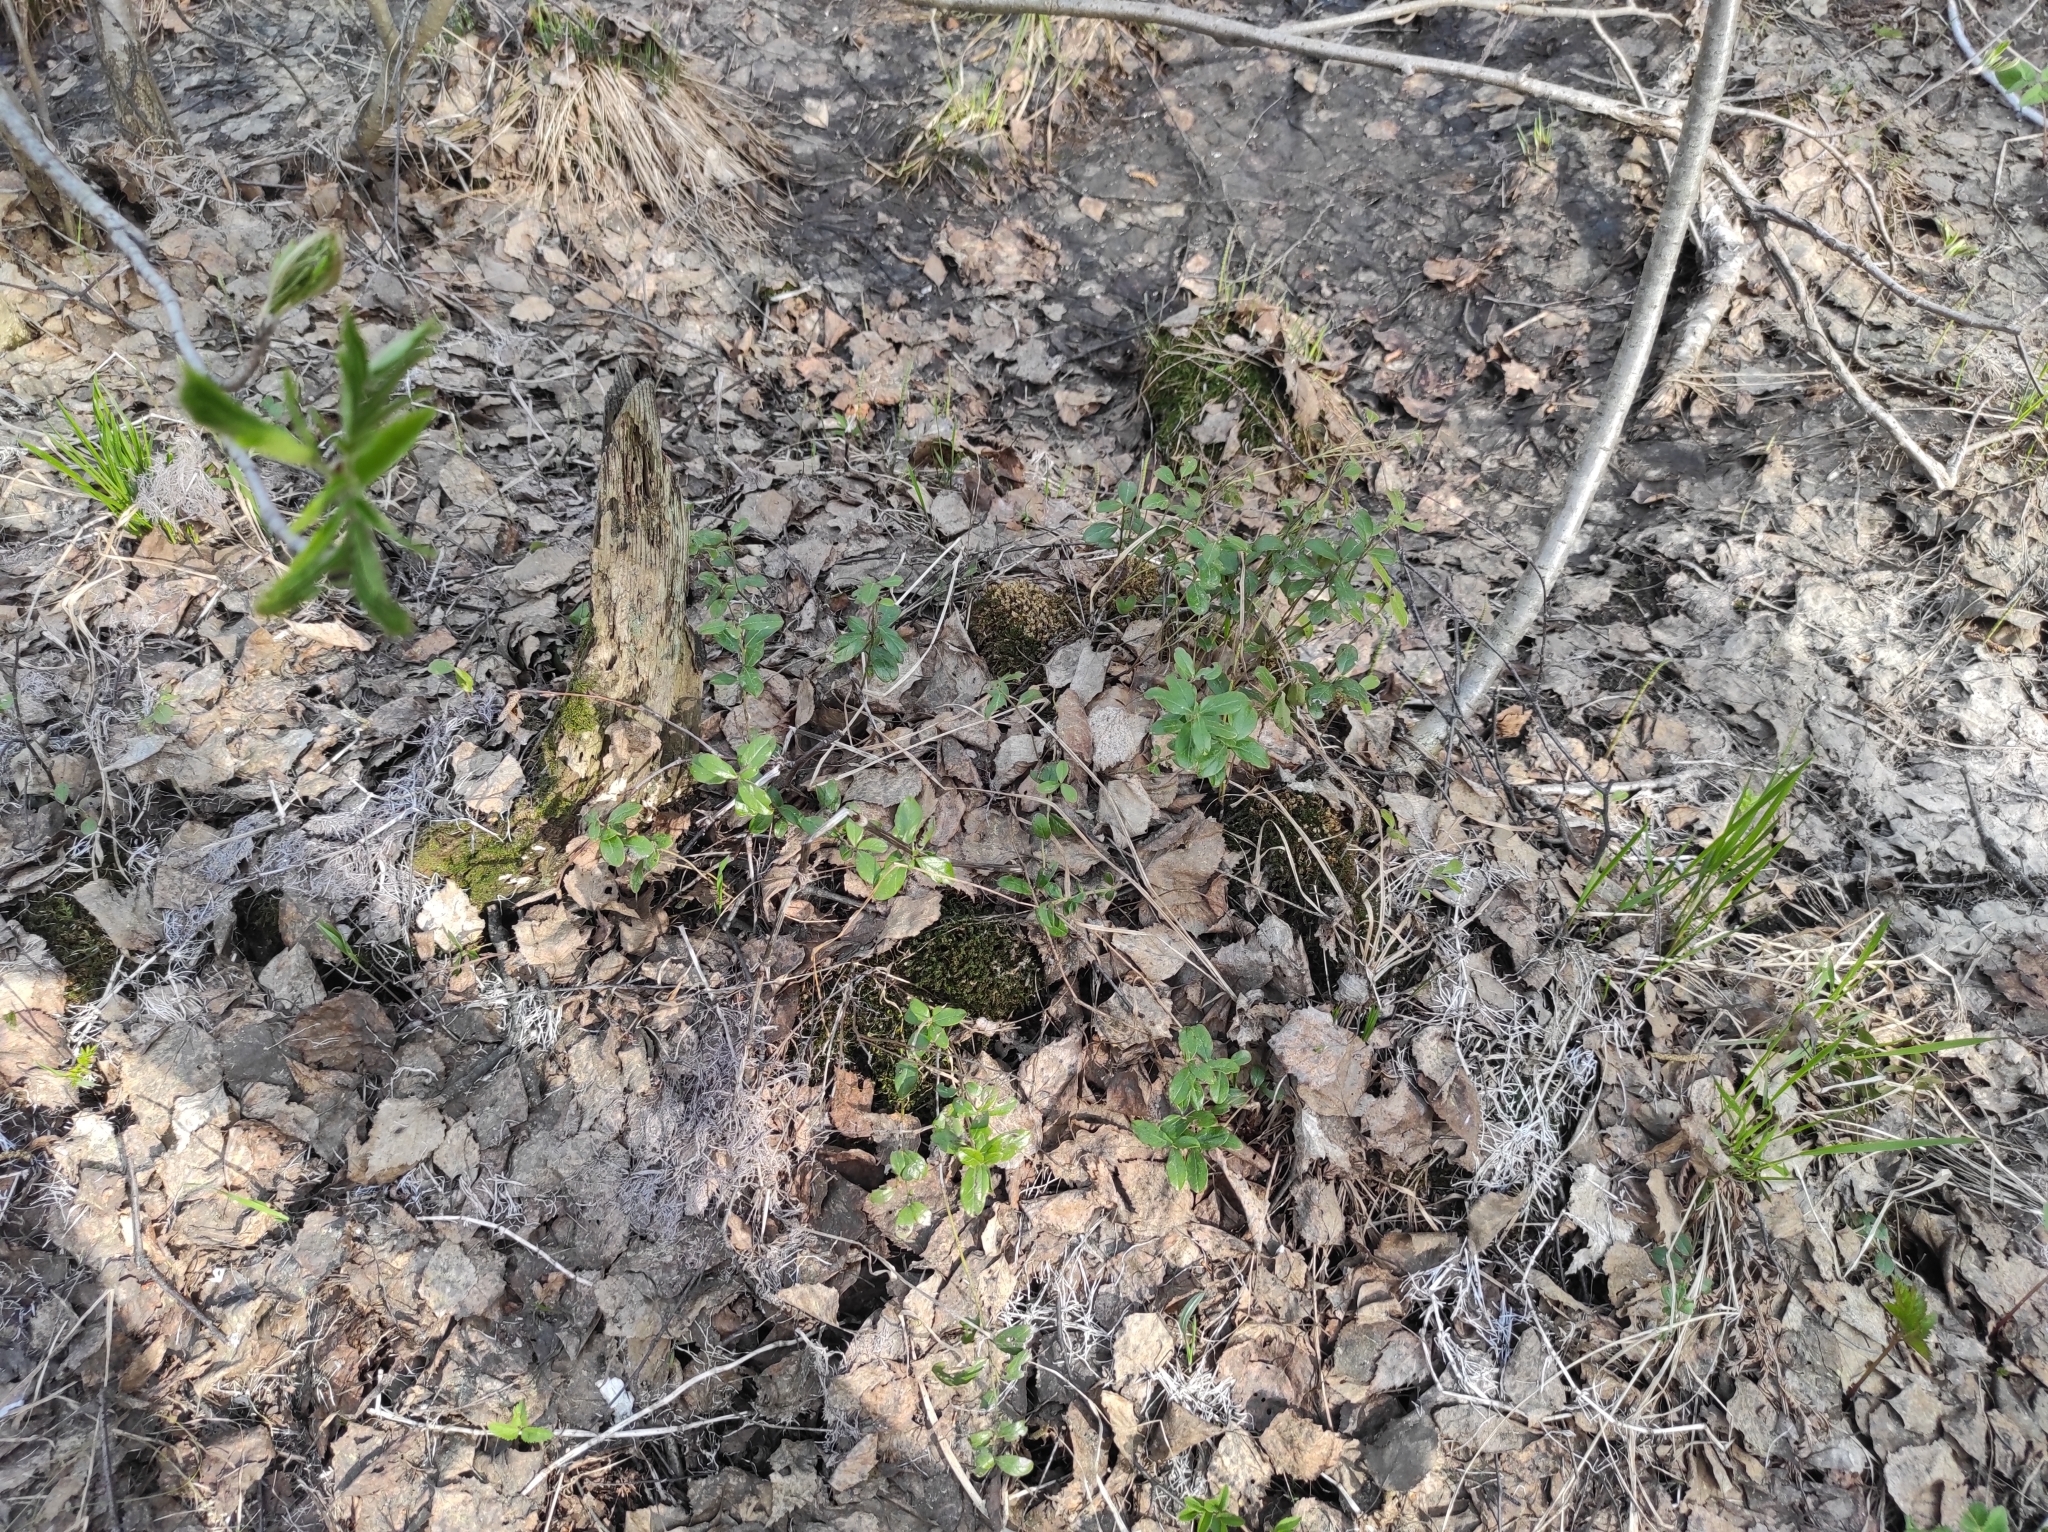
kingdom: Plantae
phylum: Tracheophyta
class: Magnoliopsida
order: Ericales
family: Ericaceae
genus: Vaccinium
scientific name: Vaccinium vitis-idaea
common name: Cowberry
